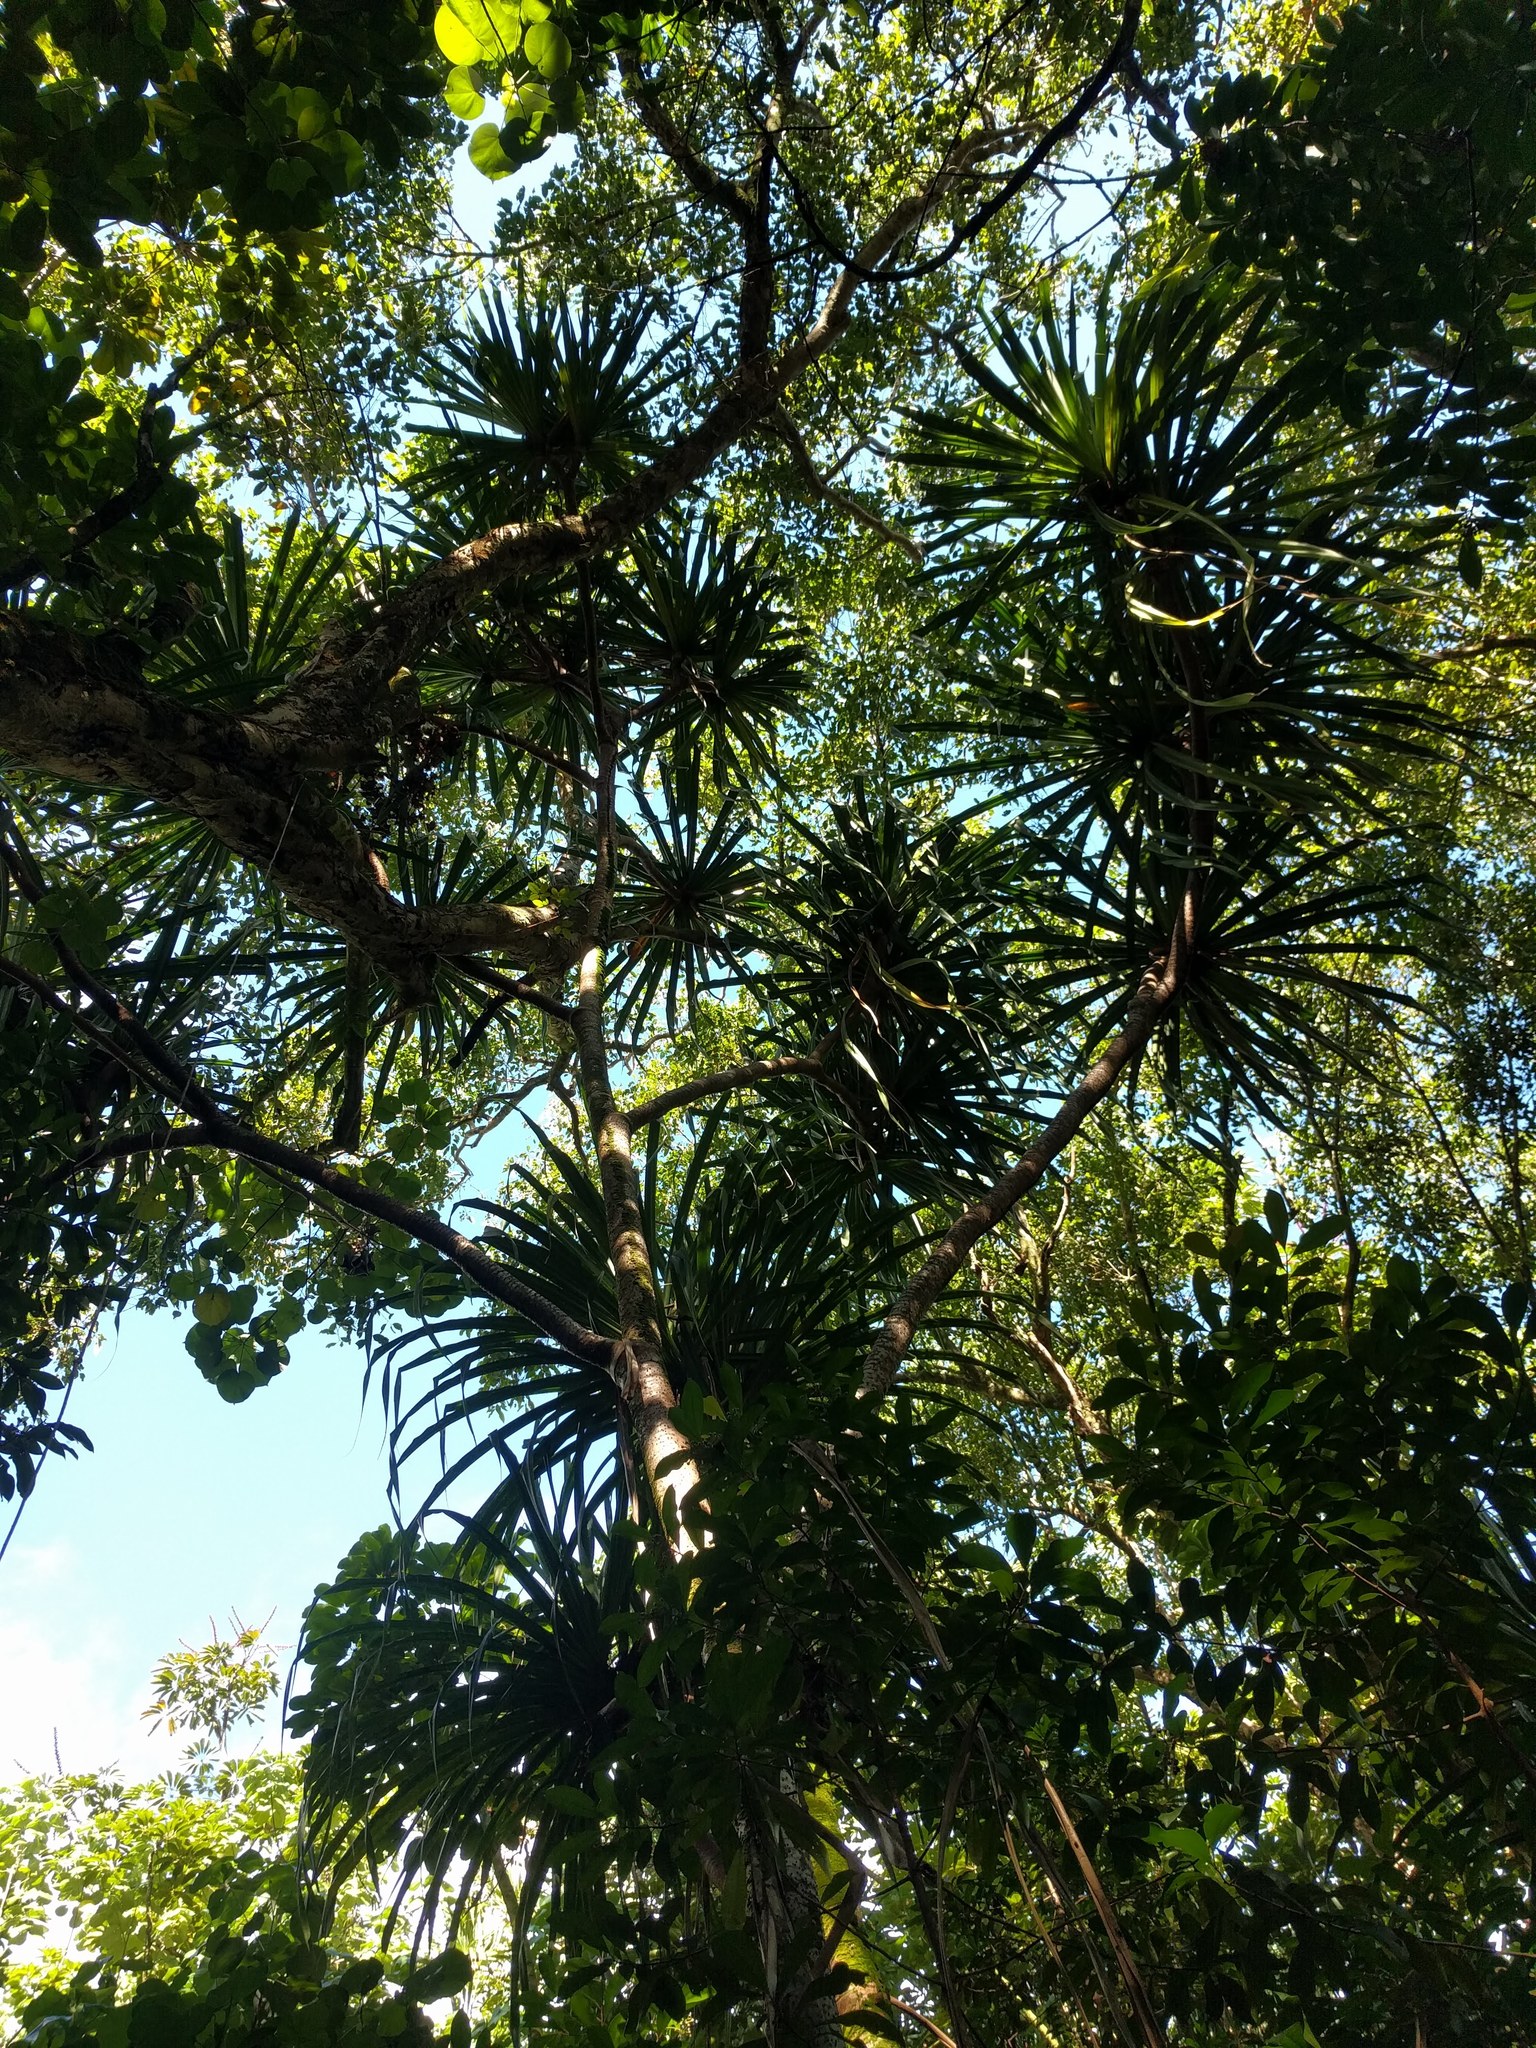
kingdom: Plantae
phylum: Tracheophyta
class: Liliopsida
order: Pandanales
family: Pandanaceae
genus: Pandanus
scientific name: Pandanus tectorius
